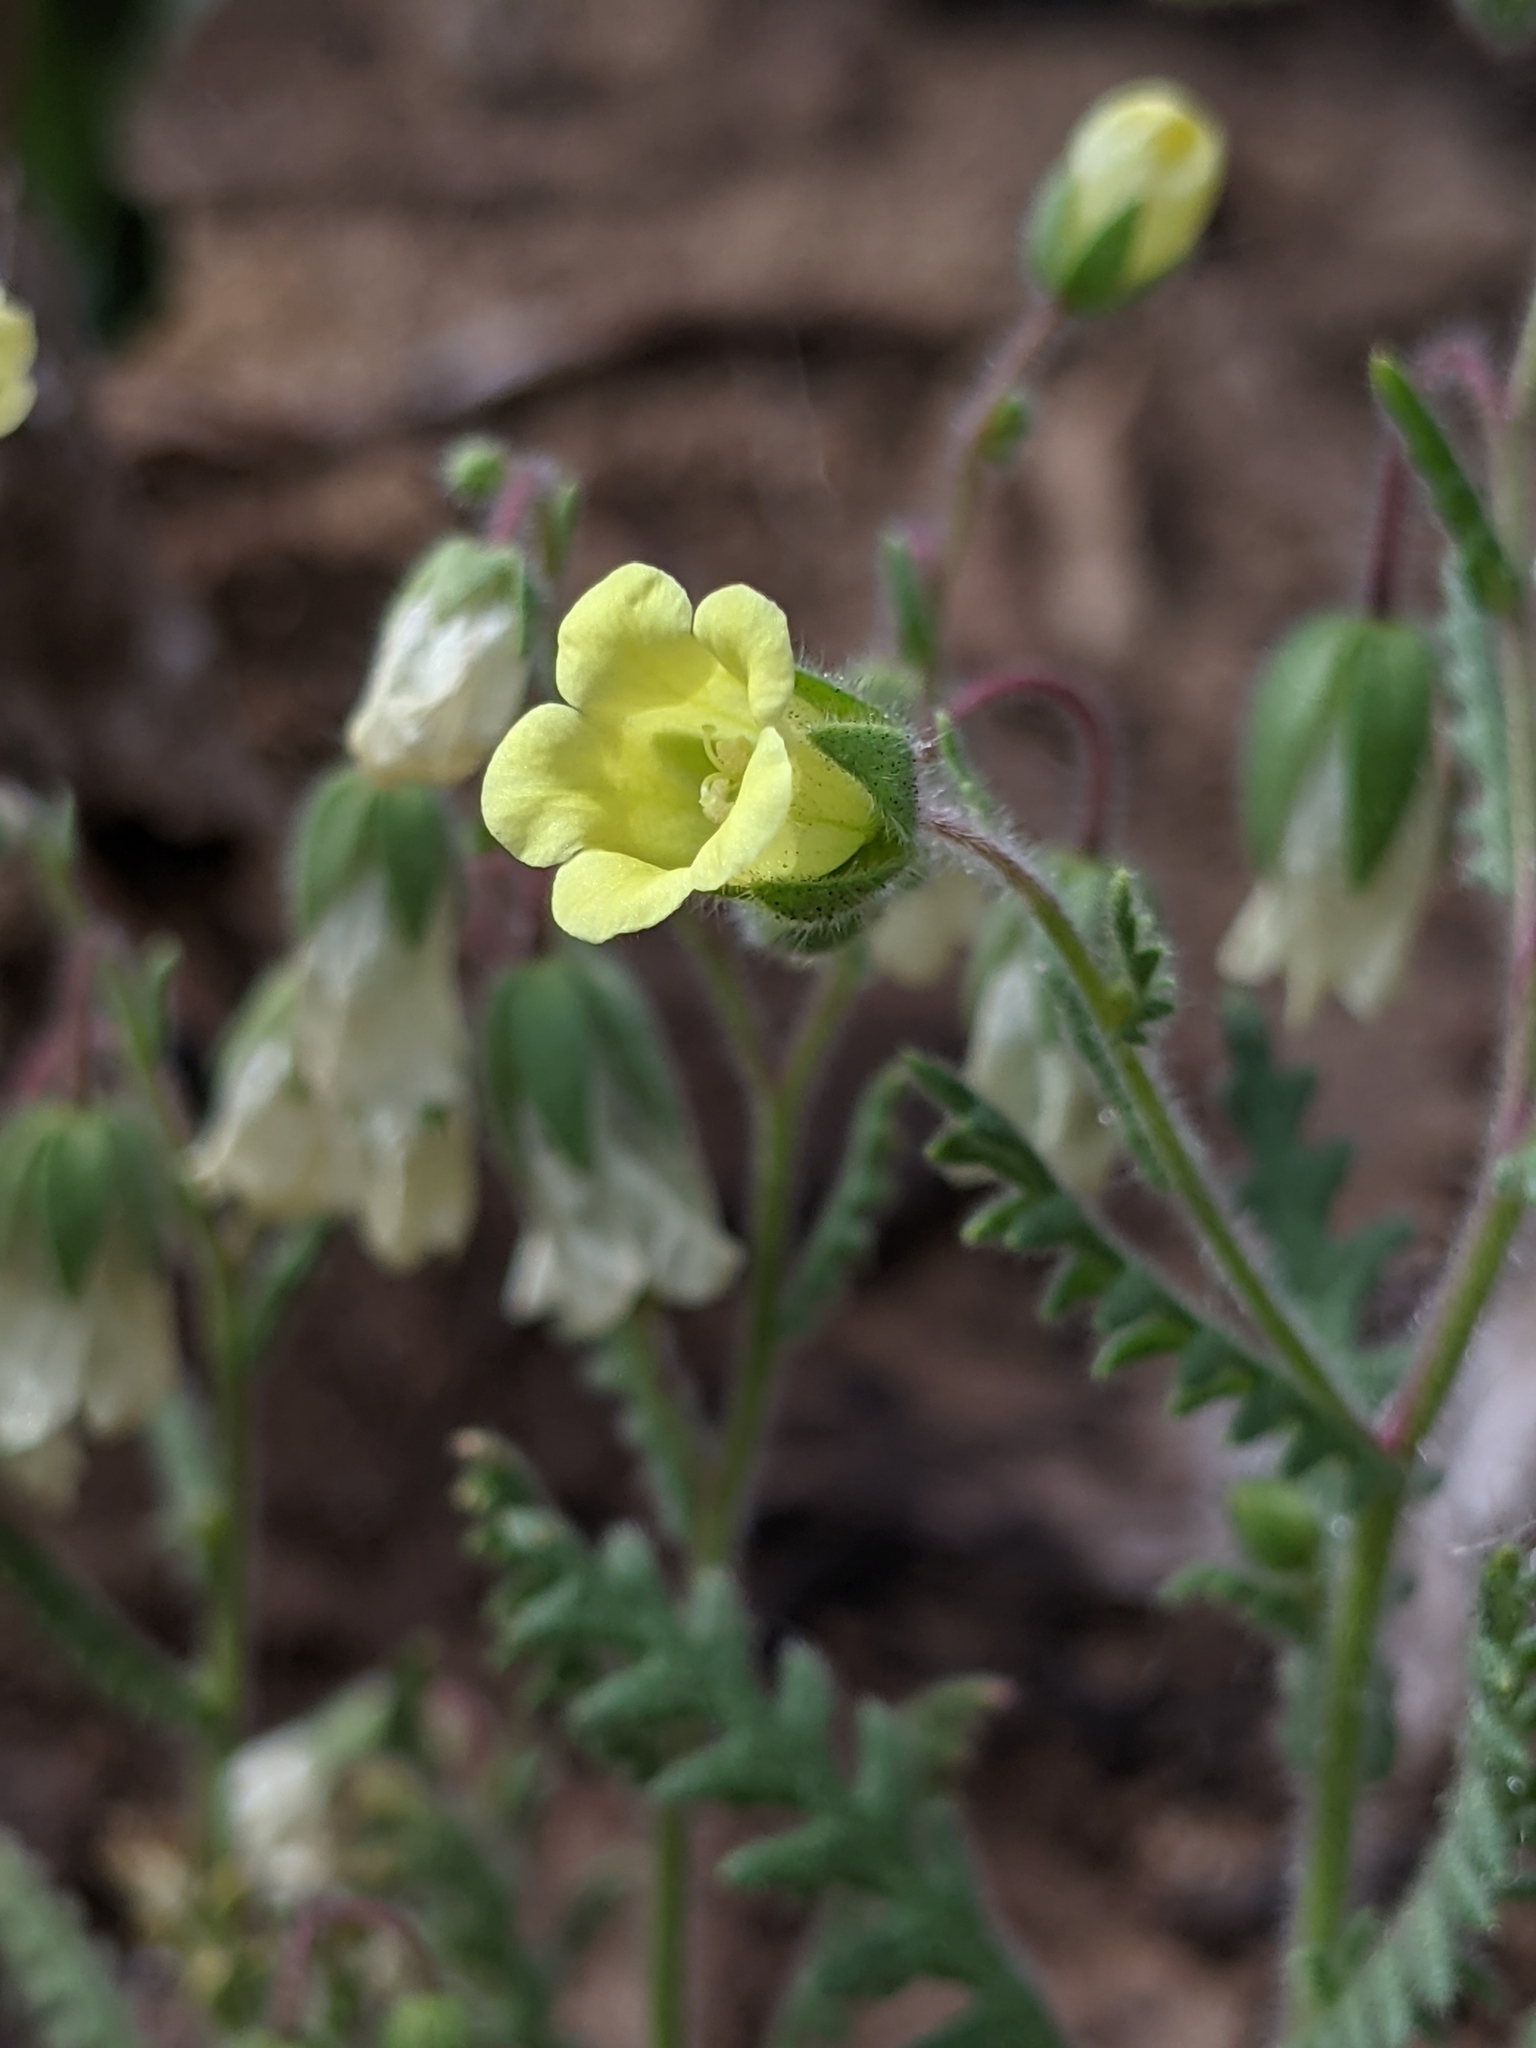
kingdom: Plantae
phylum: Tracheophyta
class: Magnoliopsida
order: Boraginales
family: Hydrophyllaceae
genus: Emmenanthe
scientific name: Emmenanthe penduliflora
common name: Whispering-bells
